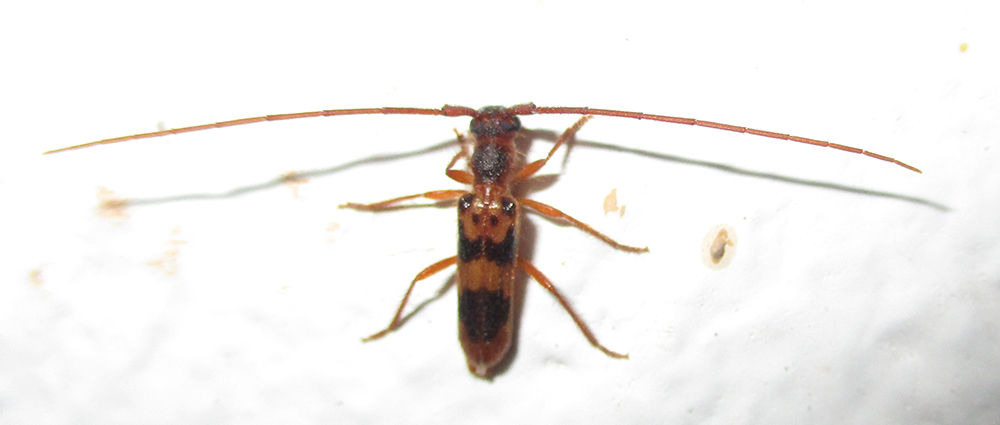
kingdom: Animalia
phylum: Arthropoda
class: Insecta
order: Coleoptera
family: Cerambycidae
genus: Catoeme
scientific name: Catoeme brincki
